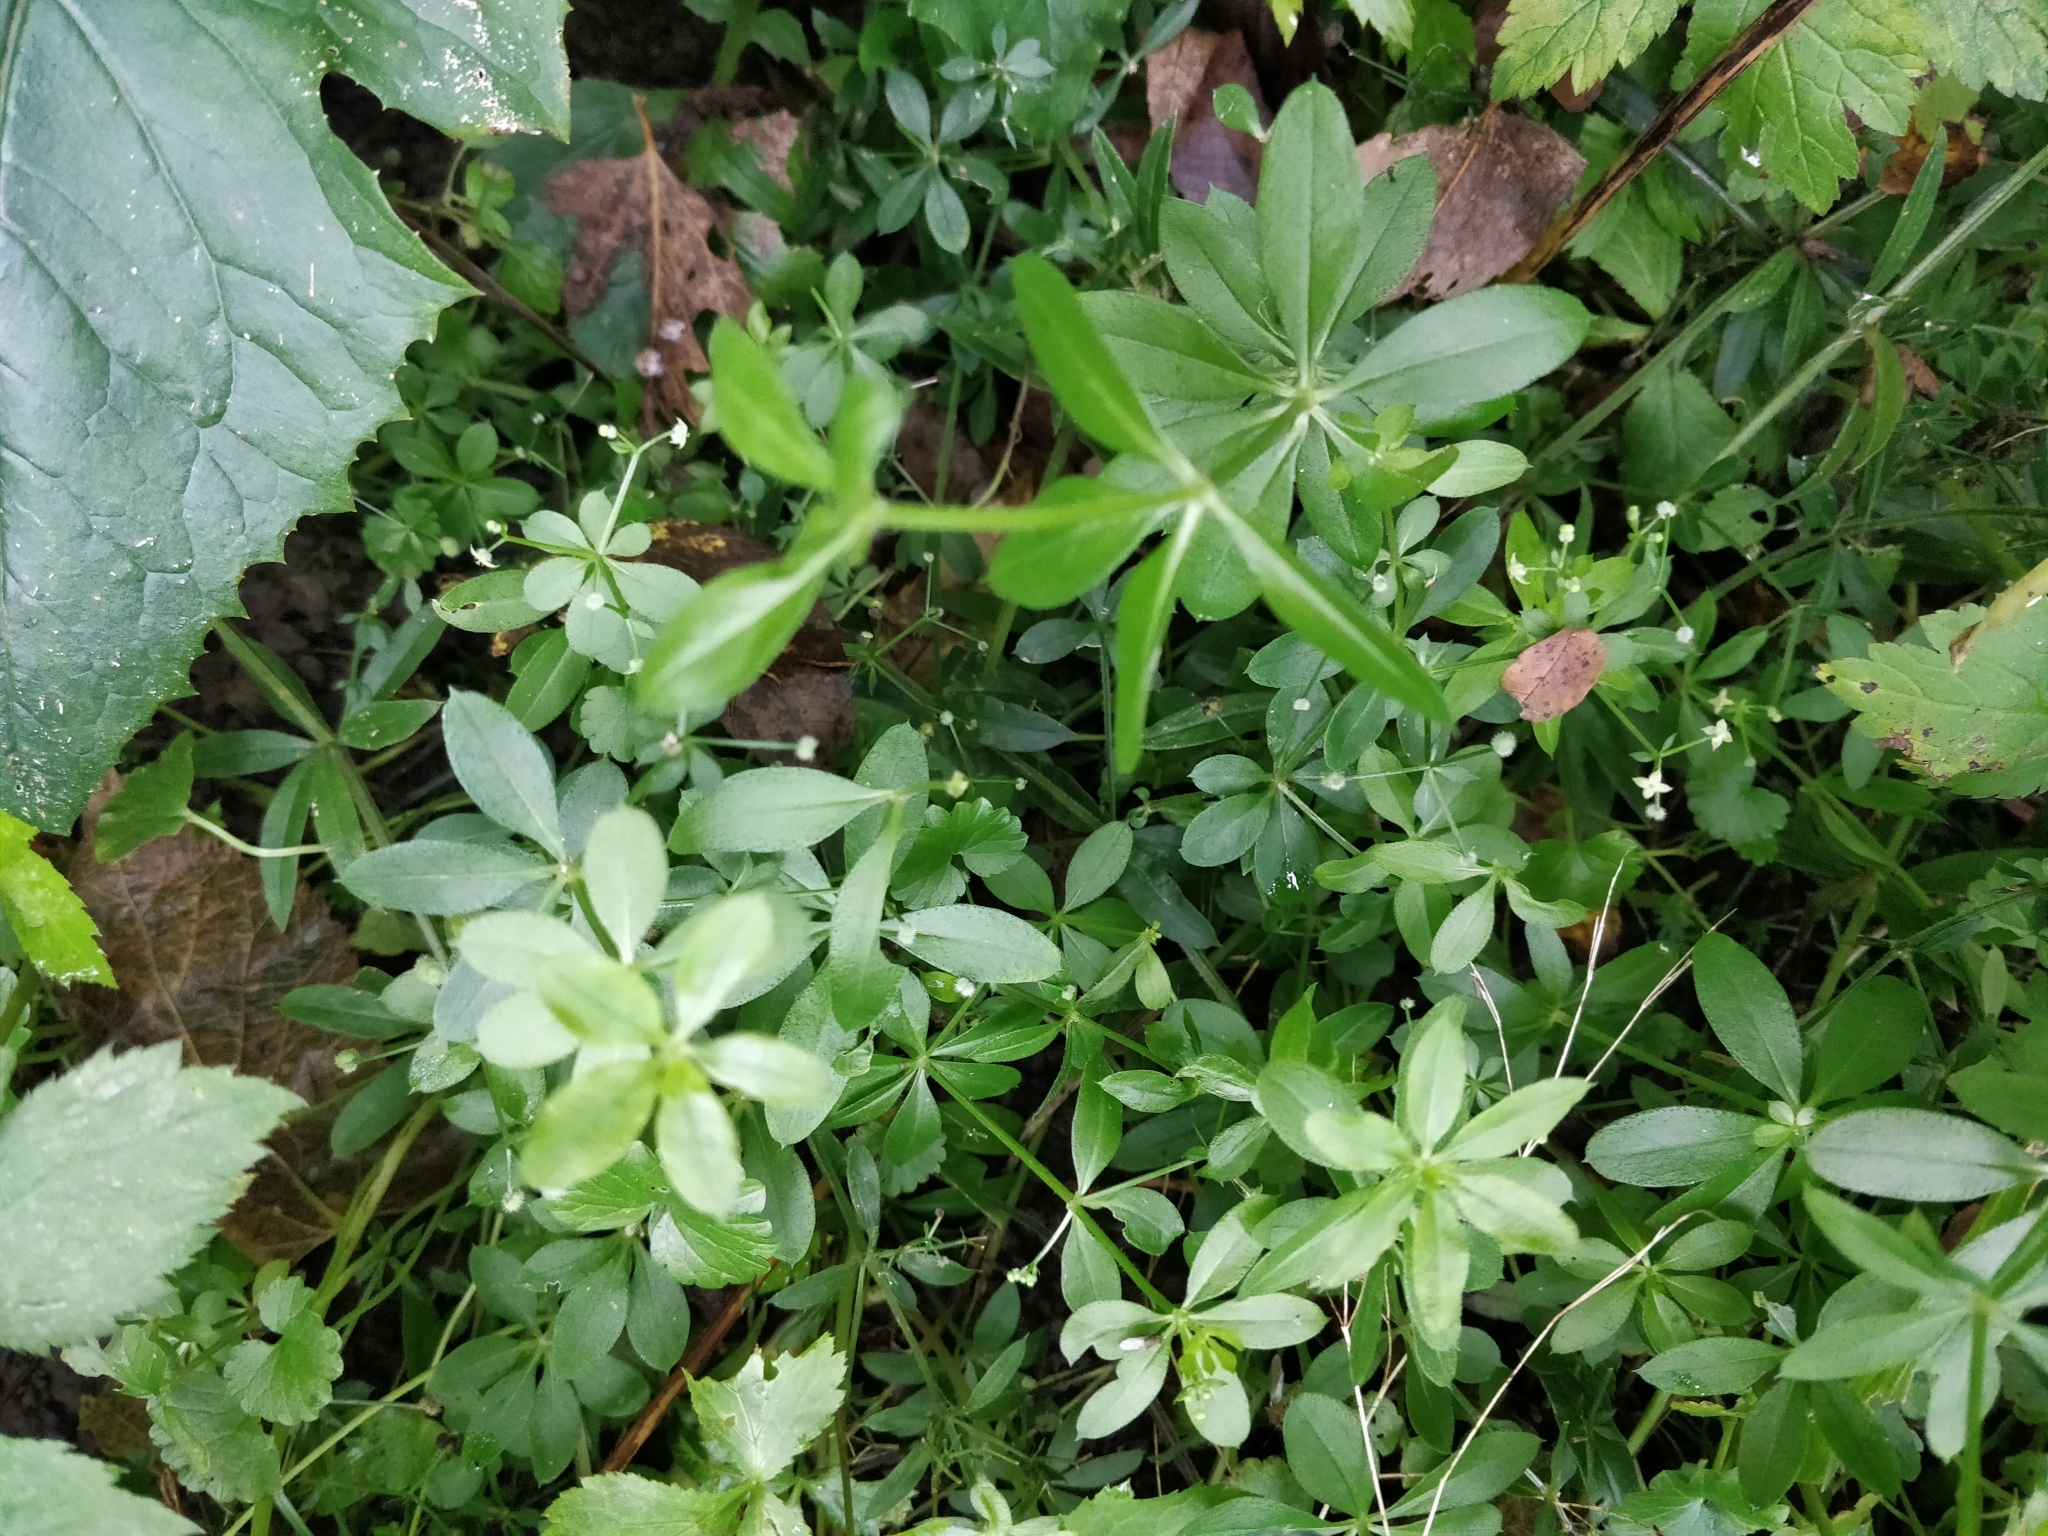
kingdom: Plantae
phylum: Tracheophyta
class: Magnoliopsida
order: Gentianales
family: Rubiaceae
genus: Galium
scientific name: Galium triflorum
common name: Fragrant bedstraw
